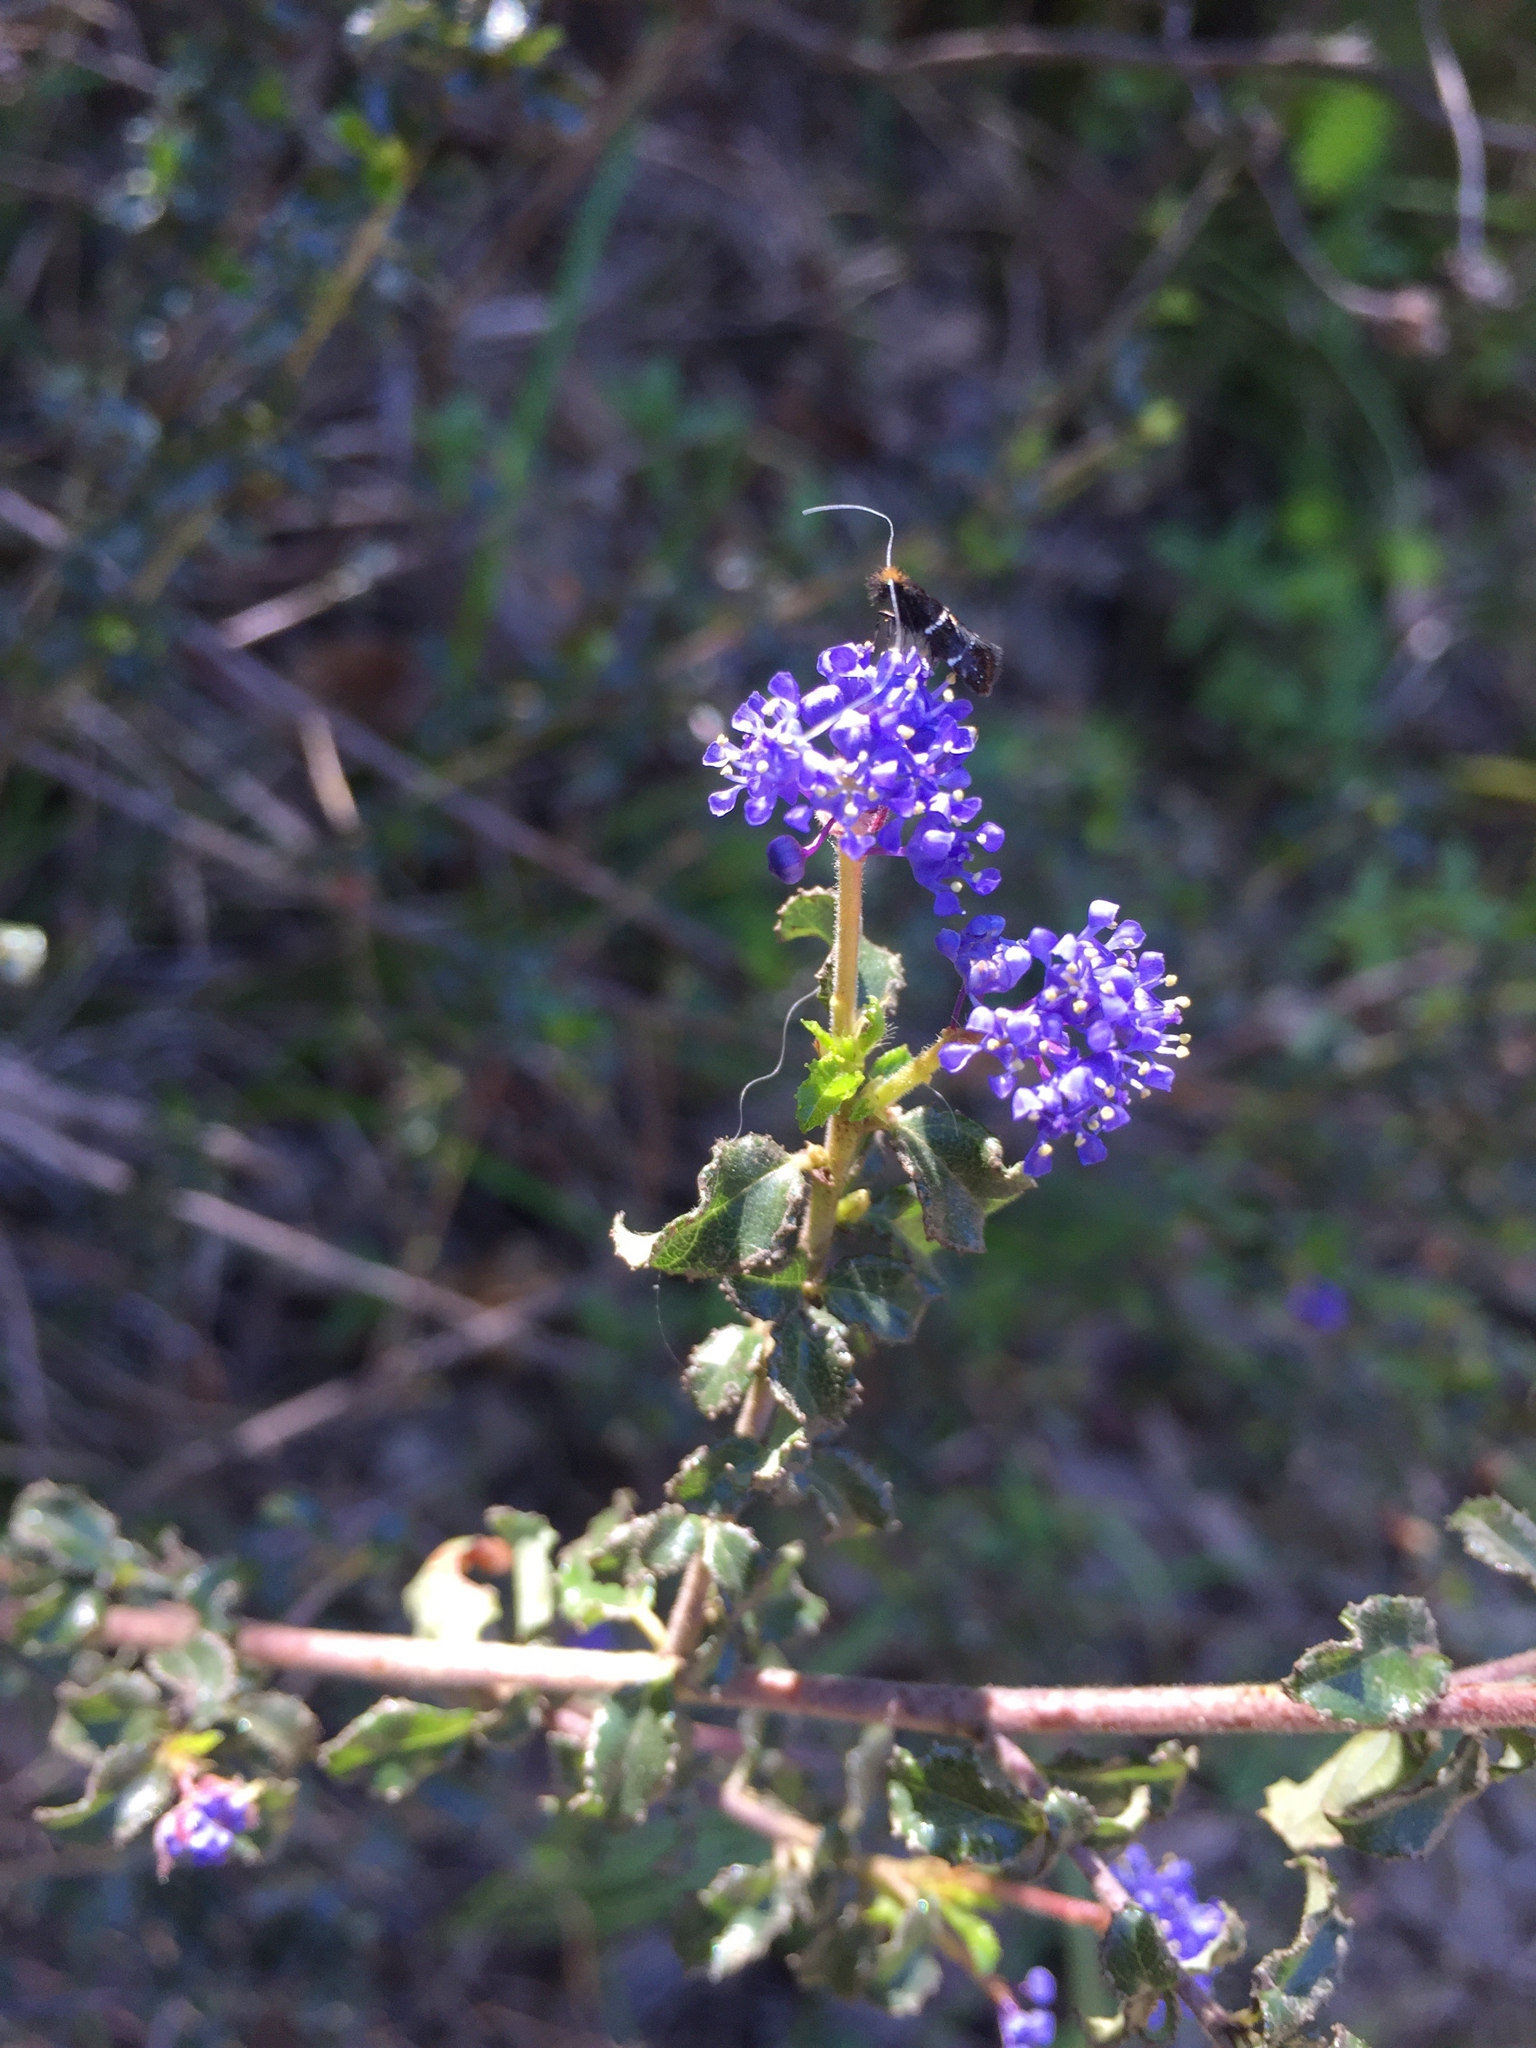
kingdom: Plantae
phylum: Tracheophyta
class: Magnoliopsida
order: Rosales
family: Rhamnaceae
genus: Ceanothus
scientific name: Ceanothus foliosus
